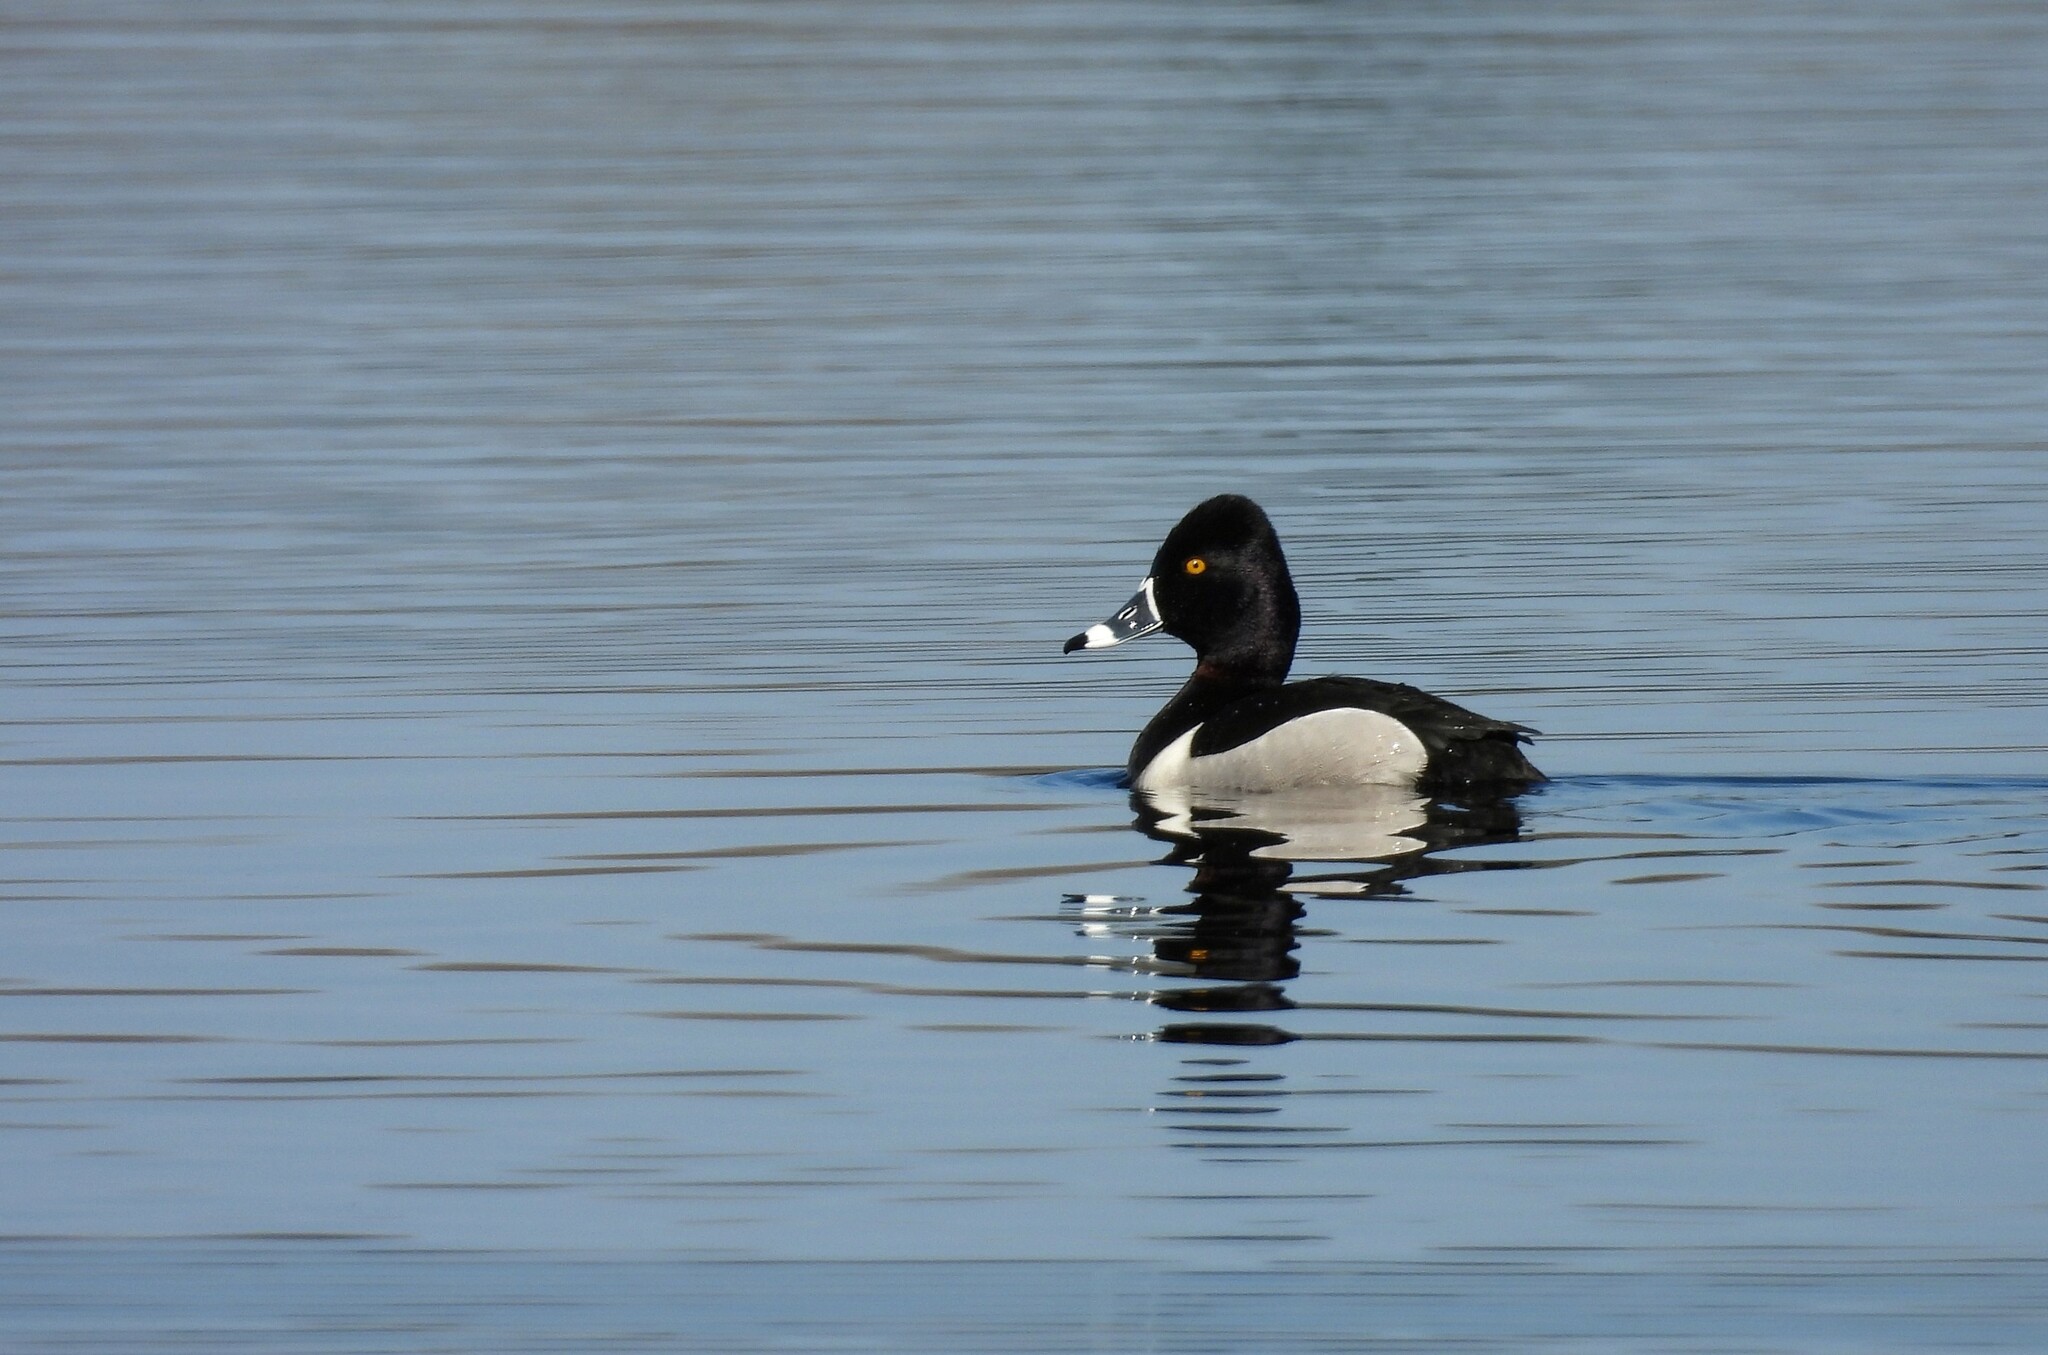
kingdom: Animalia
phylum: Chordata
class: Aves
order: Anseriformes
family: Anatidae
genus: Aythya
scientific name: Aythya collaris
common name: Ring-necked duck
